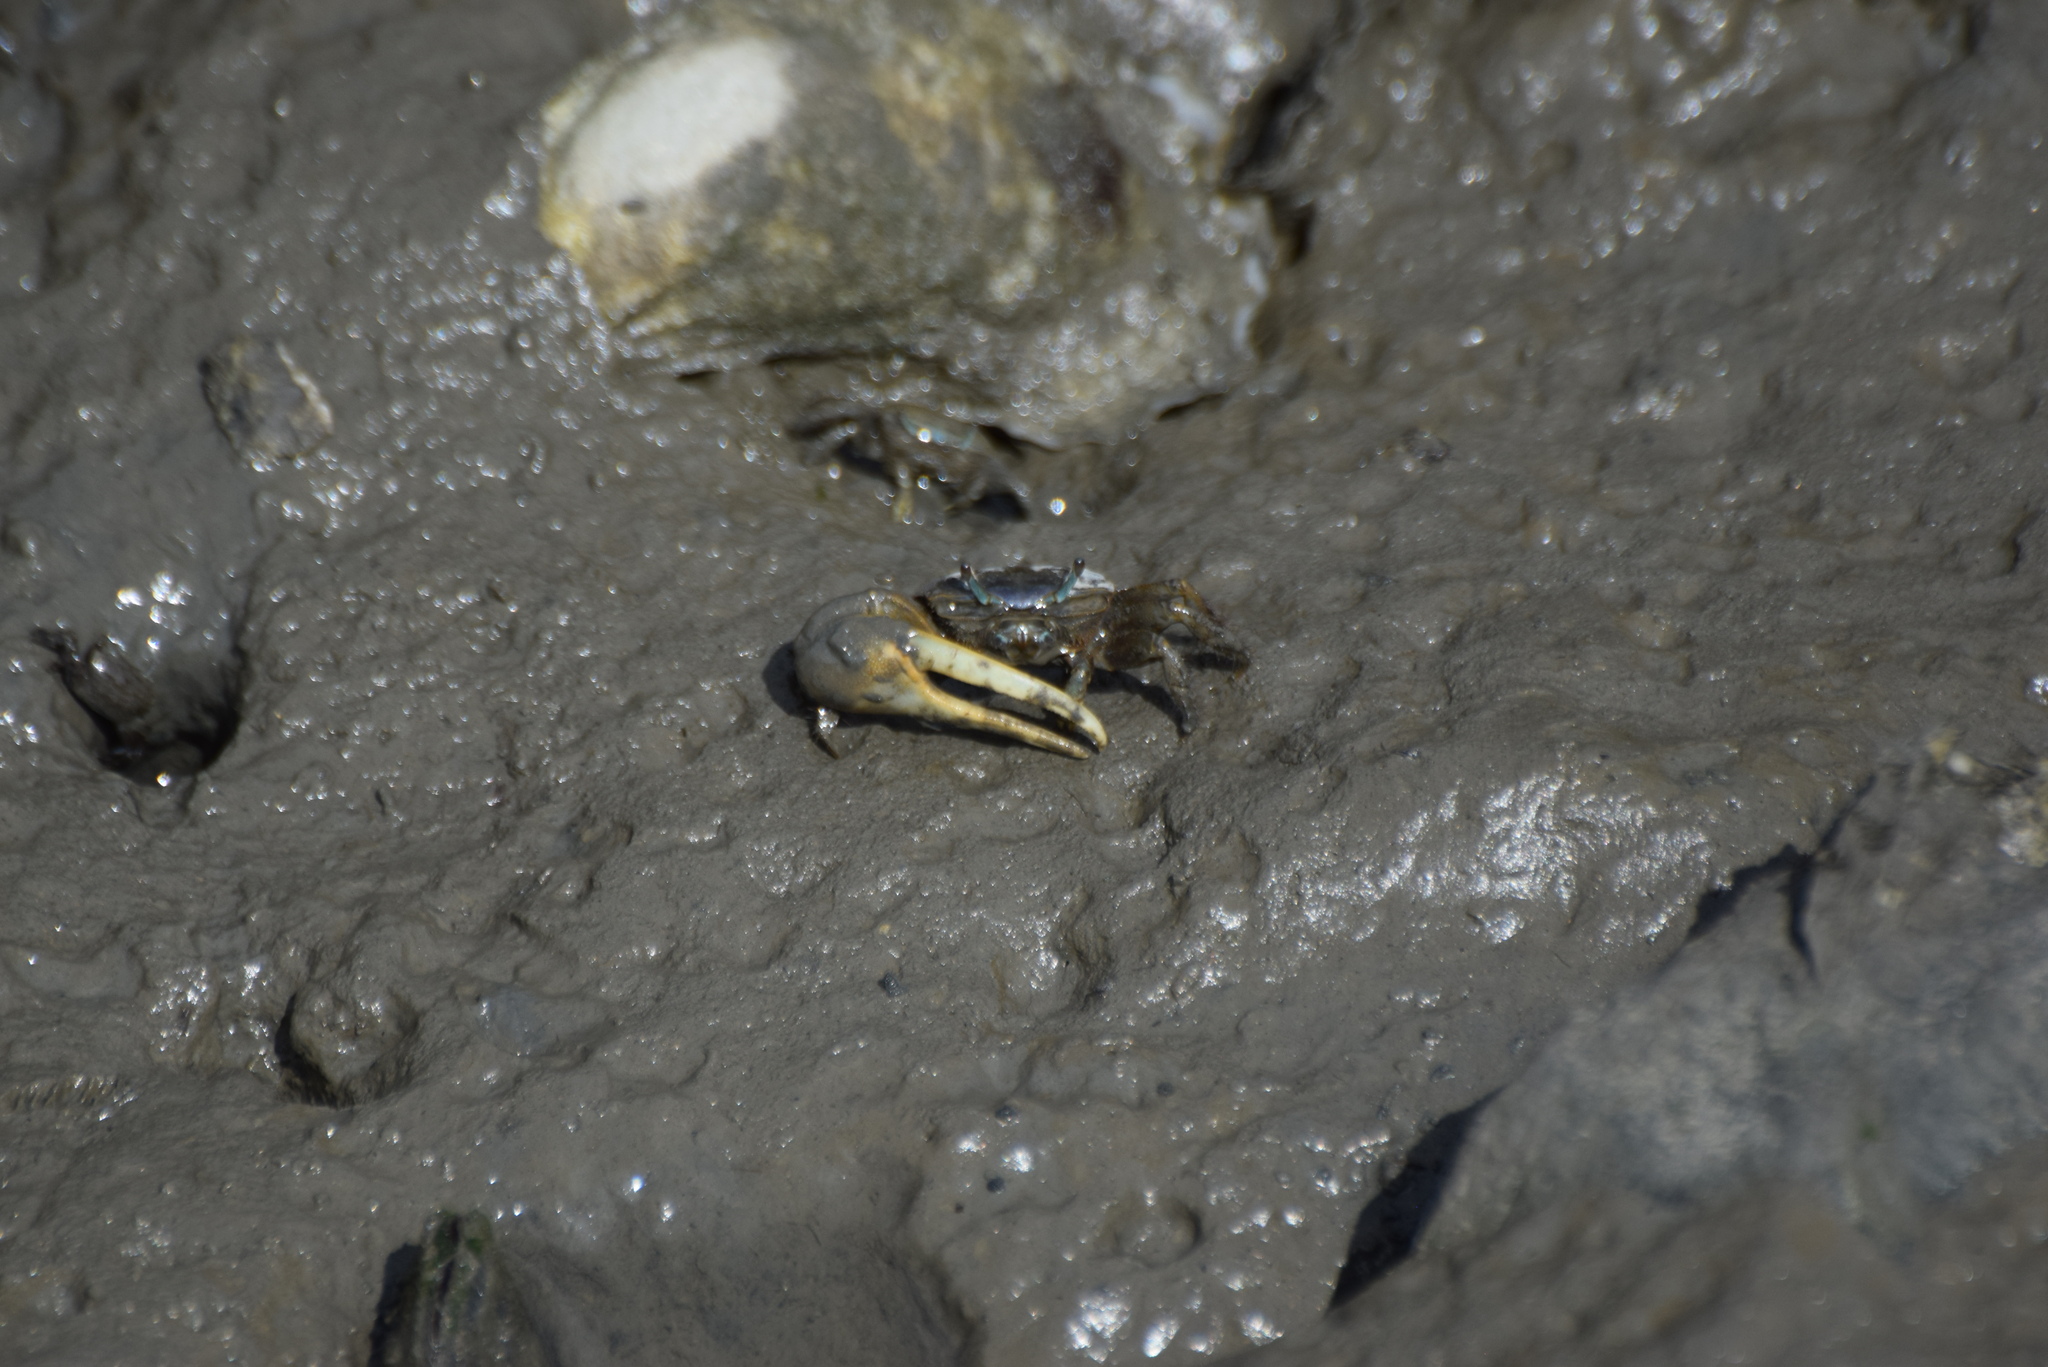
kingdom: Animalia
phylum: Arthropoda
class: Malacostraca
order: Decapoda
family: Ocypodidae
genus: Minuca
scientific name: Minuca pugnax
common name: Mud fiddler crab
